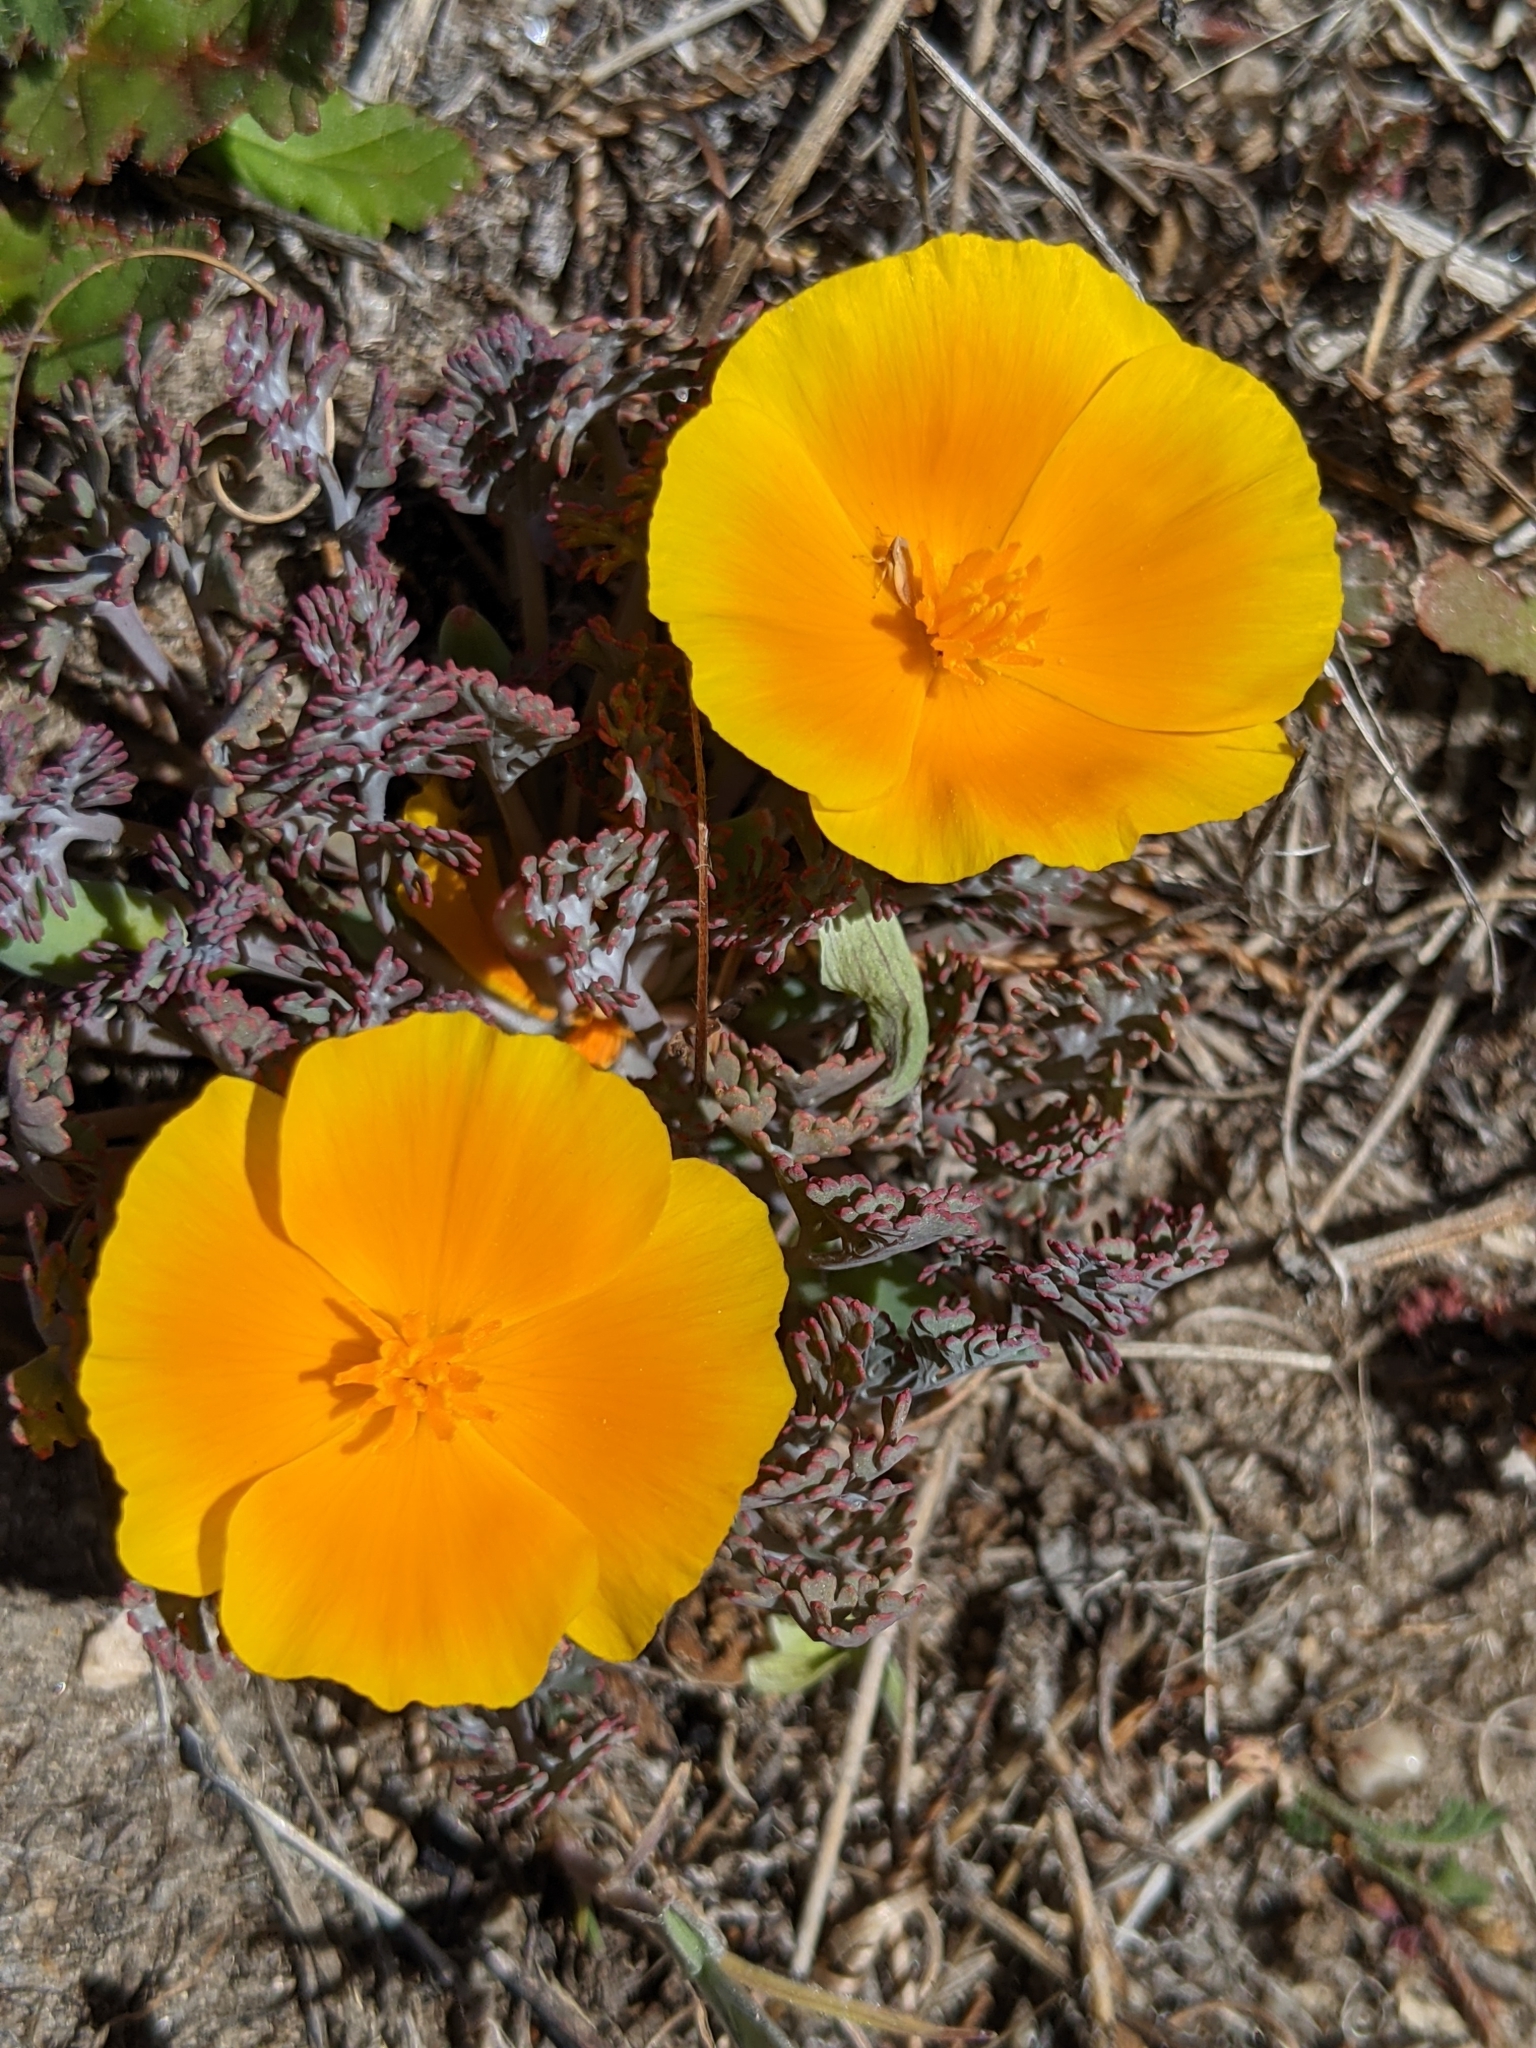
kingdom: Plantae
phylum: Tracheophyta
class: Magnoliopsida
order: Ranunculales
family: Papaveraceae
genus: Eschscholzia
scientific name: Eschscholzia californica
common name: California poppy
